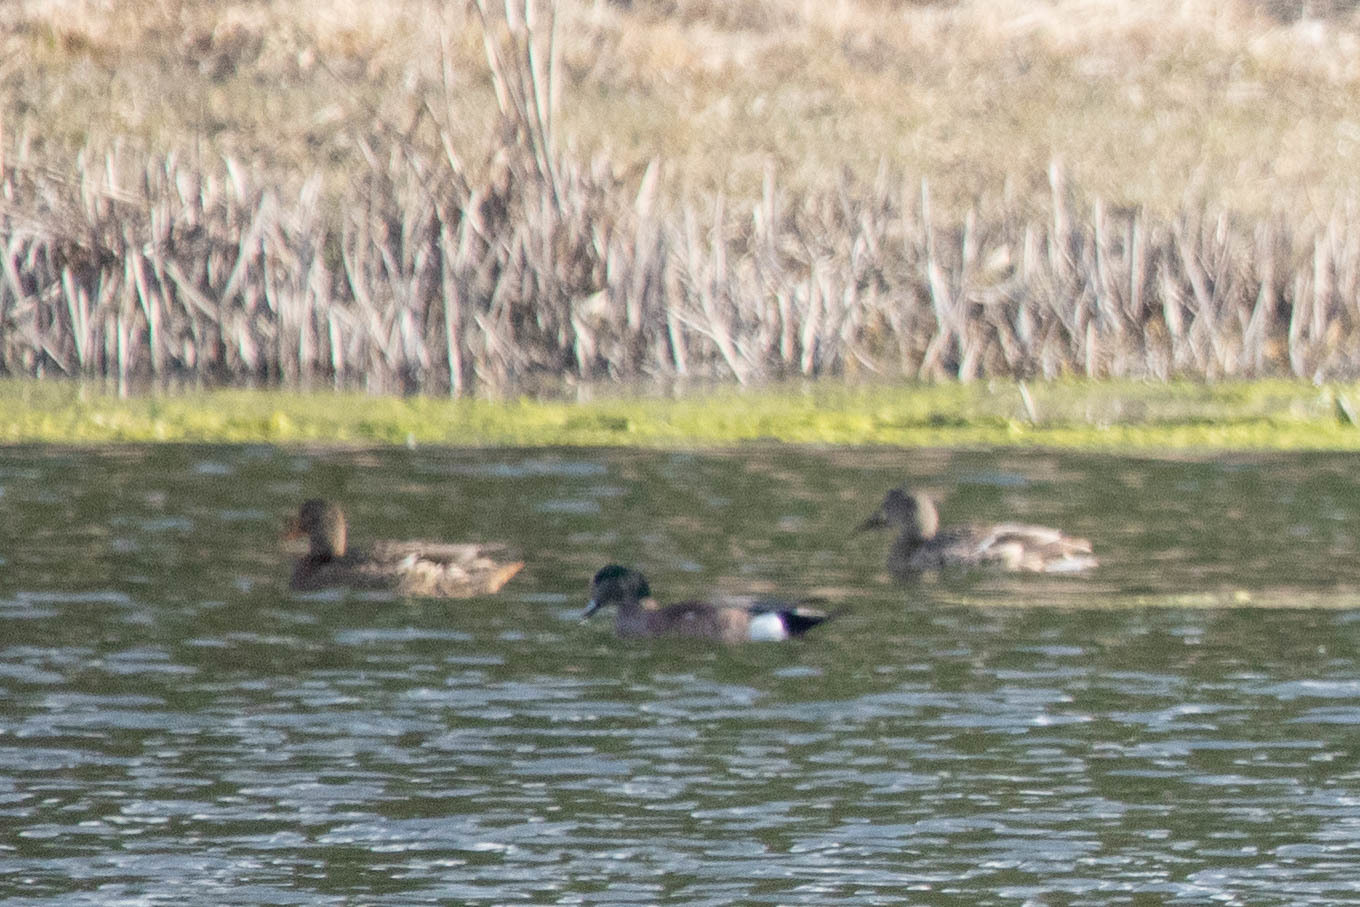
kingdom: Animalia
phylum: Chordata
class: Aves
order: Anseriformes
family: Anatidae
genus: Mareca
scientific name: Mareca americana
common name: American wigeon
